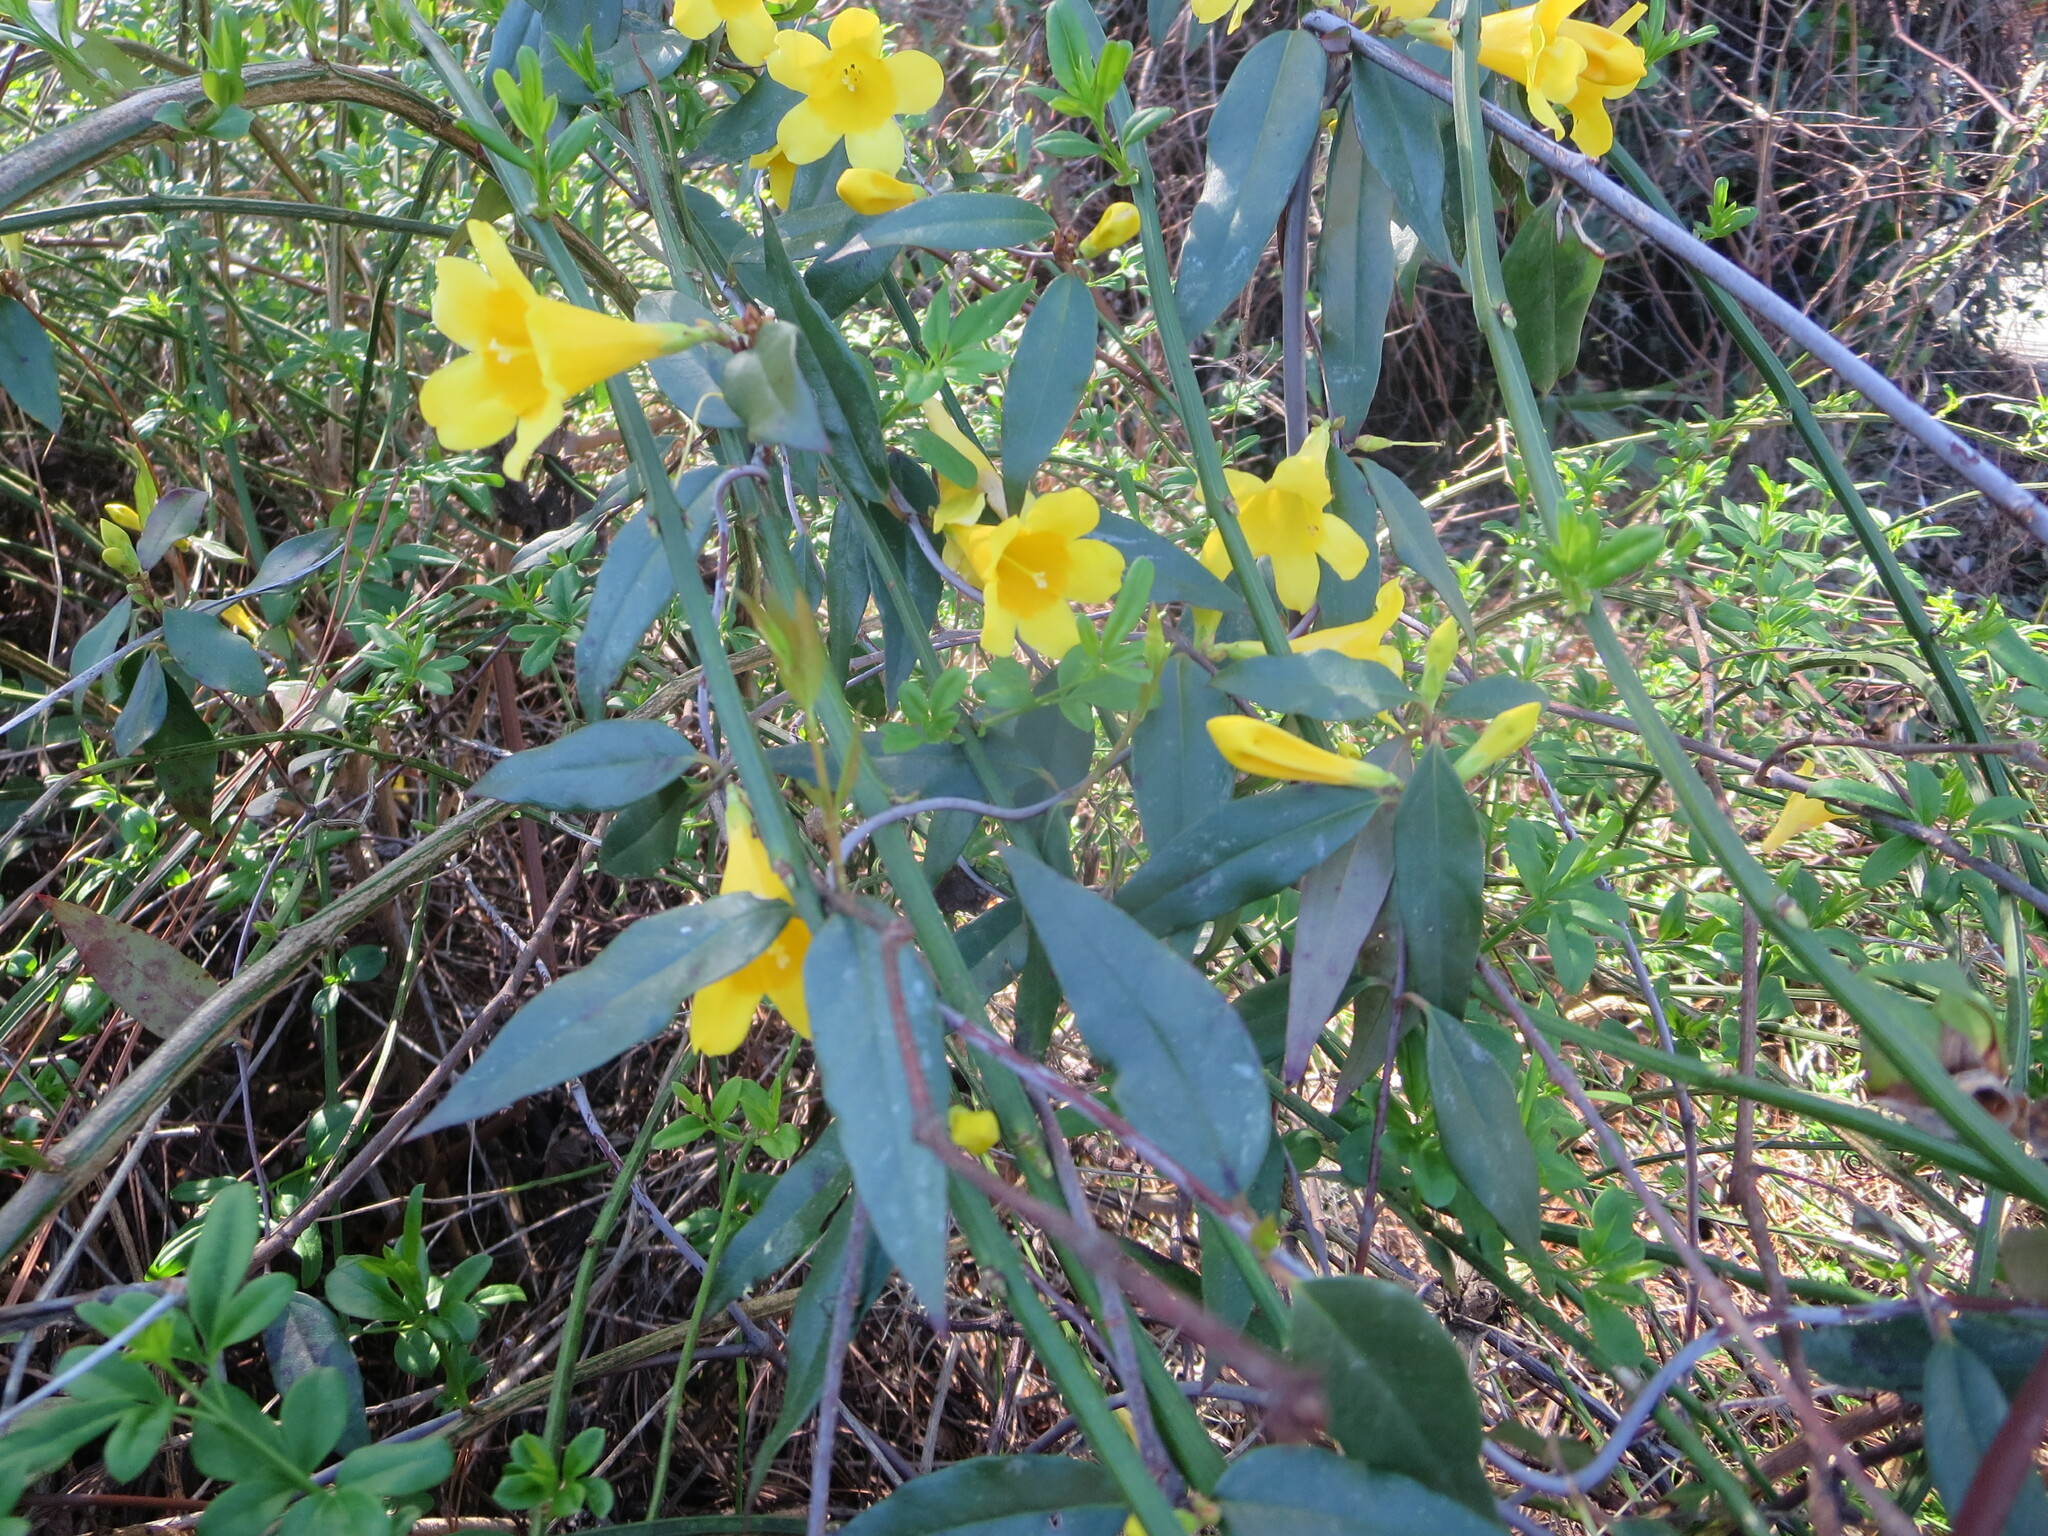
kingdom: Plantae
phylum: Tracheophyta
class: Magnoliopsida
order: Gentianales
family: Gelsemiaceae
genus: Gelsemium
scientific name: Gelsemium sempervirens
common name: Carolina-jasmine
